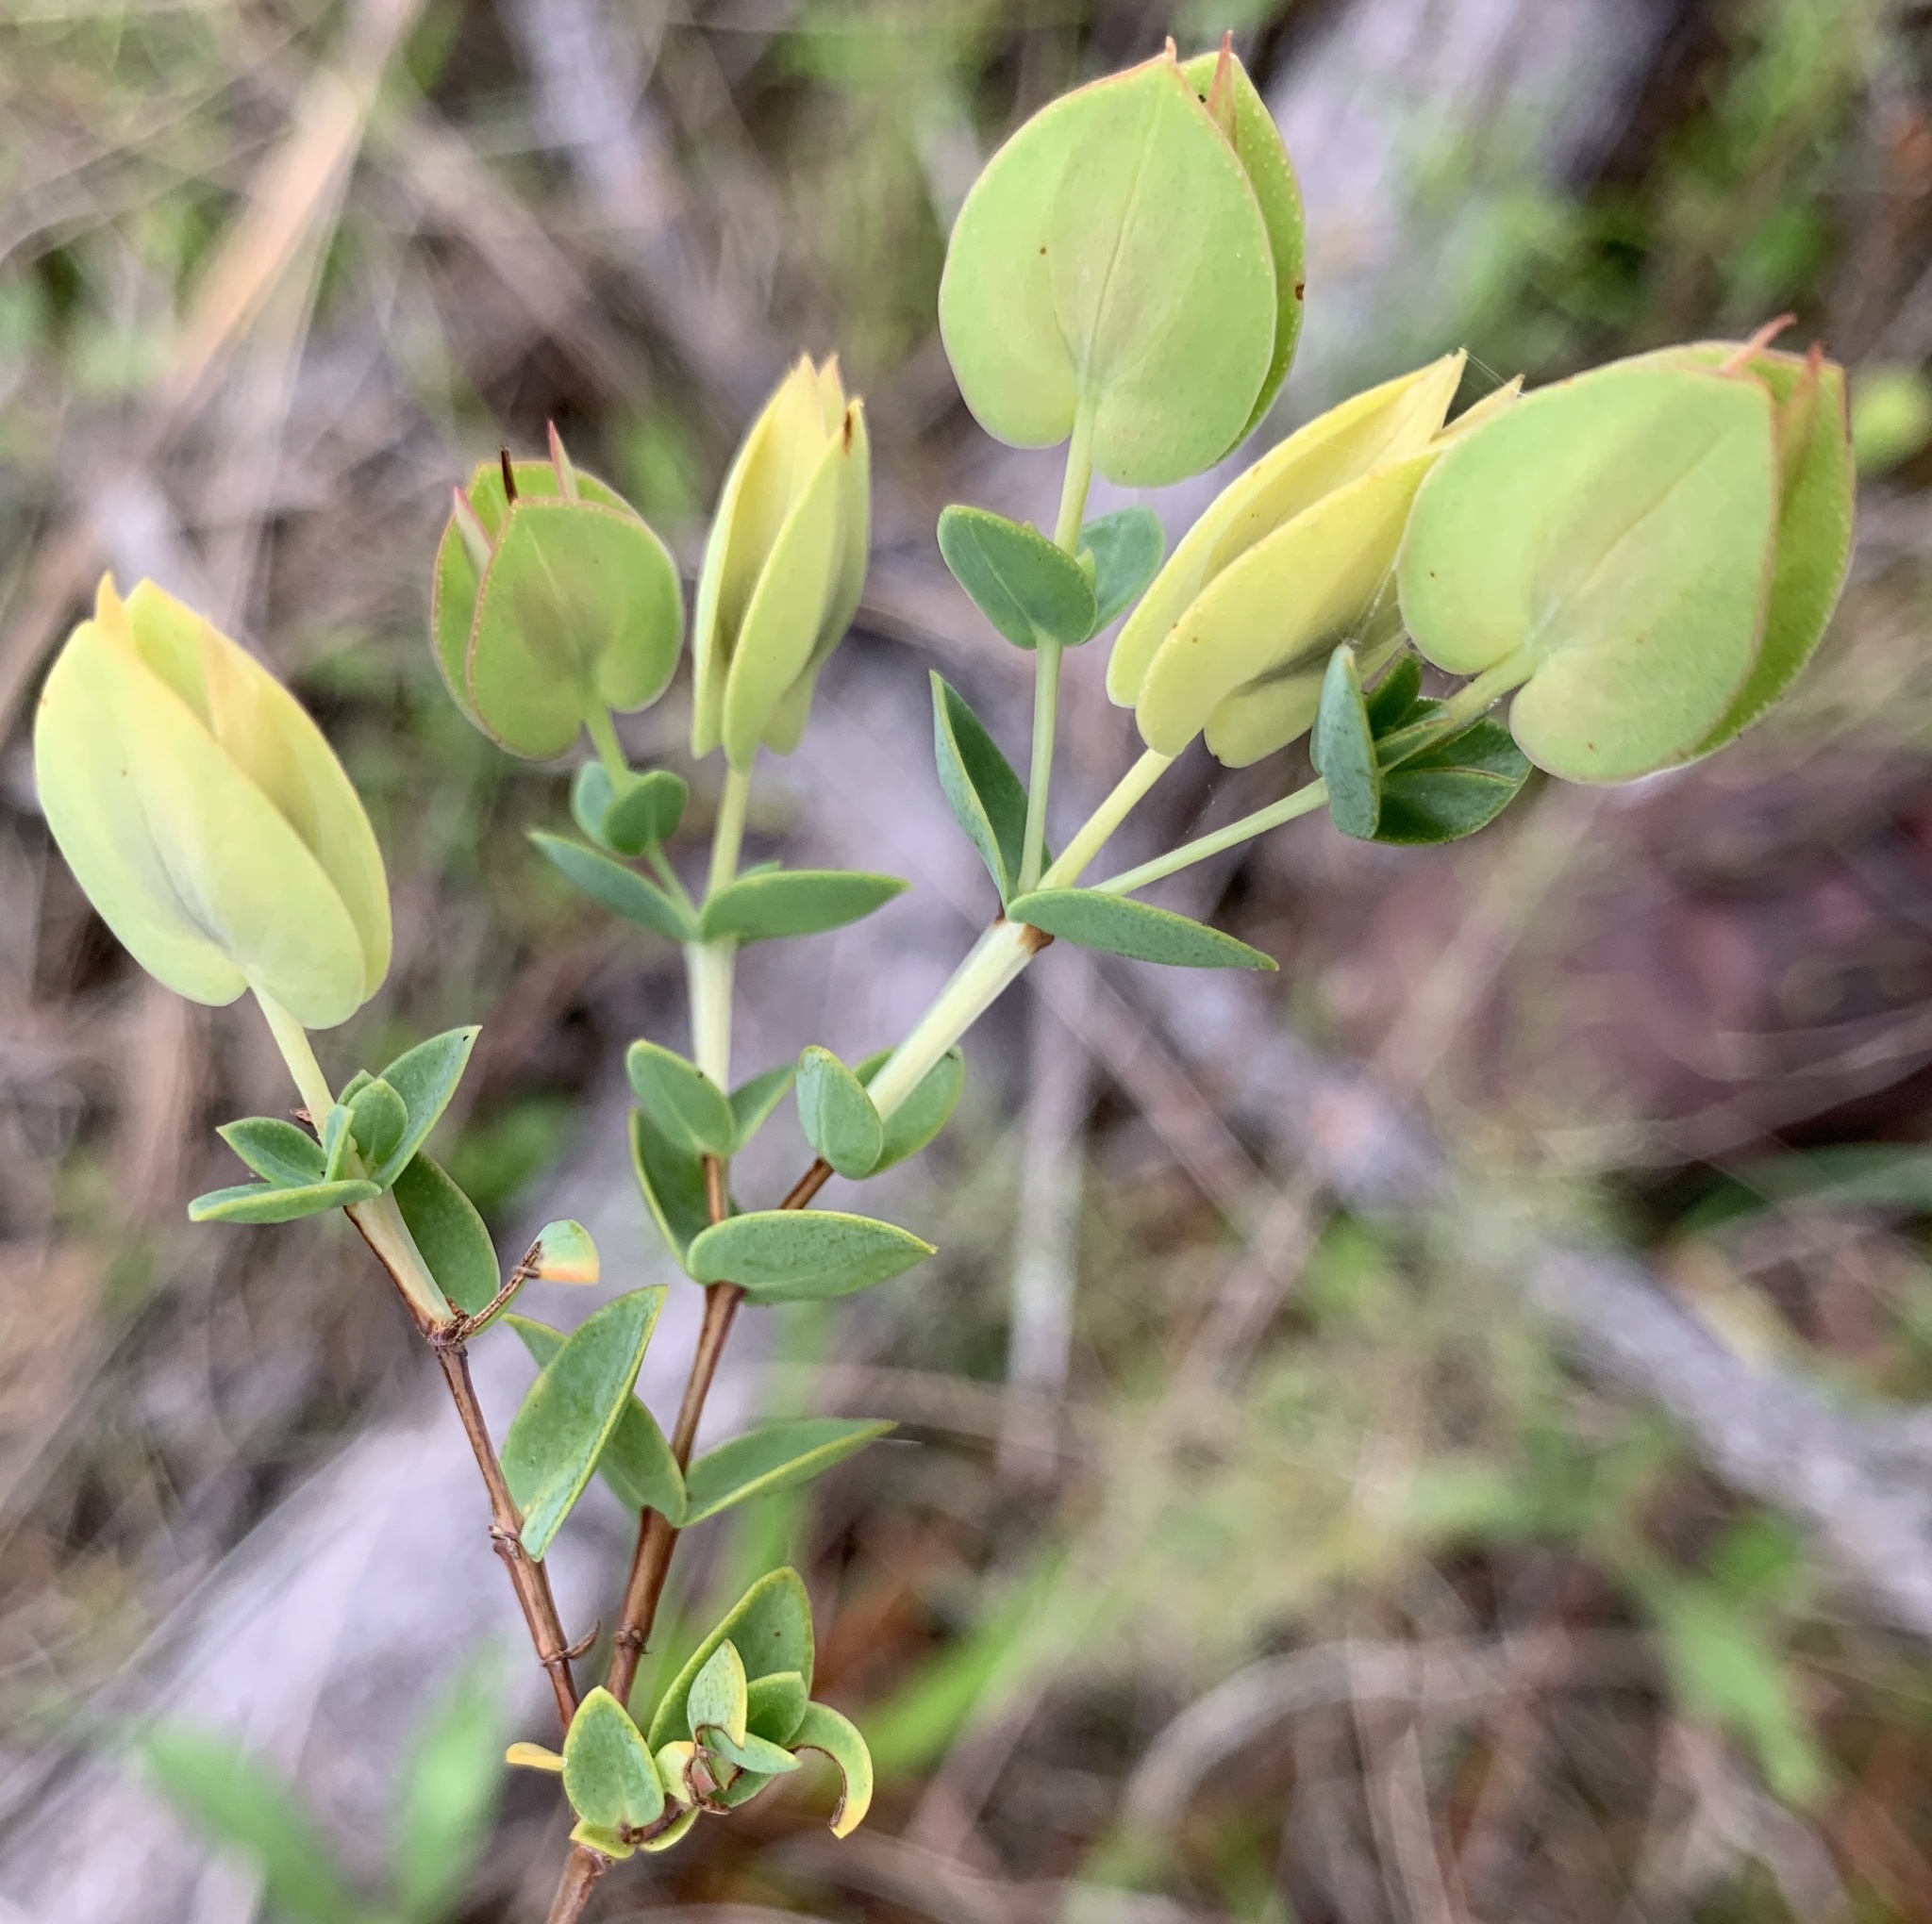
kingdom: Plantae
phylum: Tracheophyta
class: Magnoliopsida
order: Malpighiales
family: Hypericaceae
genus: Hypericum
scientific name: Hypericum tetrapetalum
